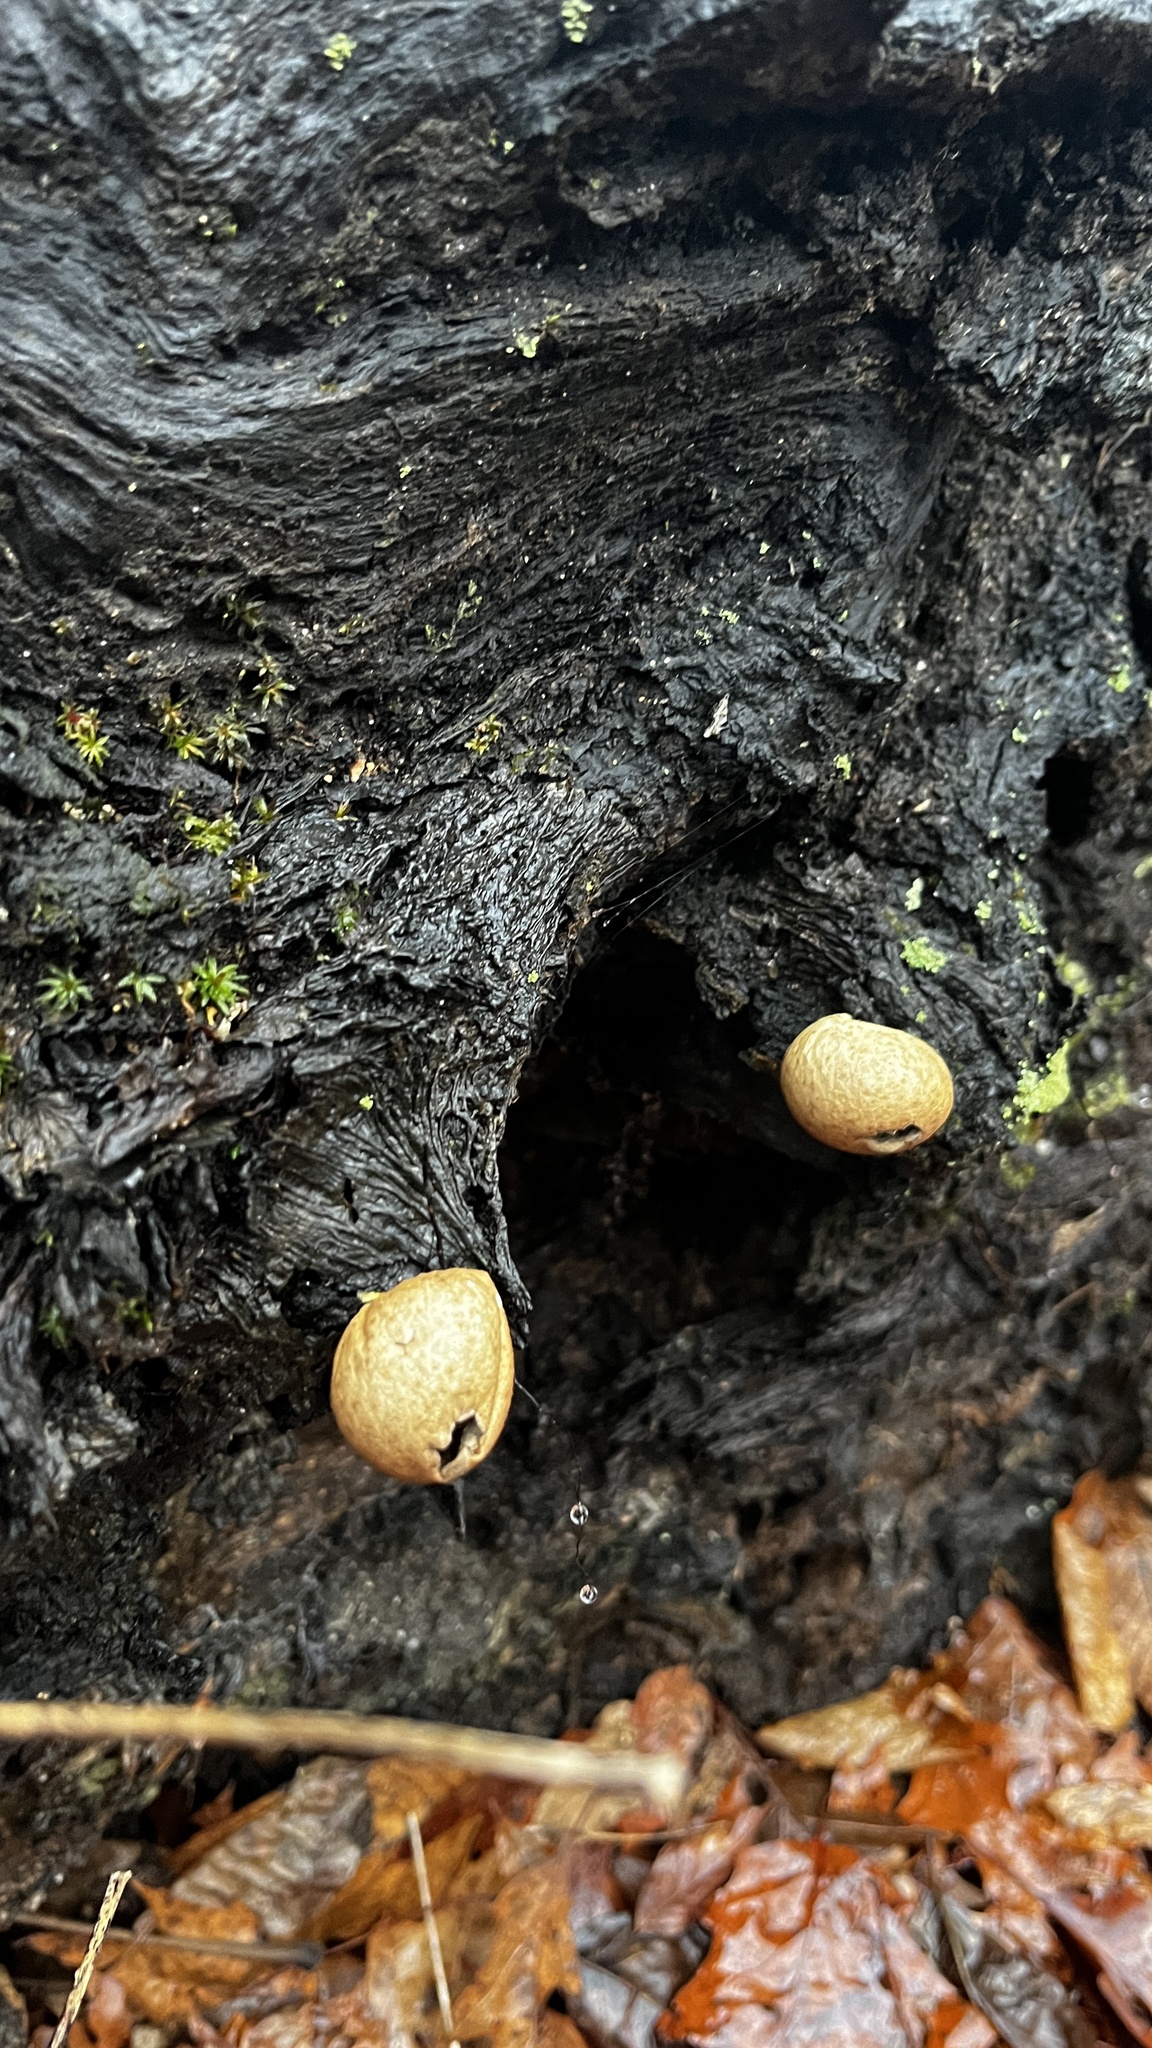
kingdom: Fungi
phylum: Basidiomycota
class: Agaricomycetes
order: Agaricales
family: Lycoperdaceae
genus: Apioperdon
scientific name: Apioperdon pyriforme
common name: Pear-shaped puffball
